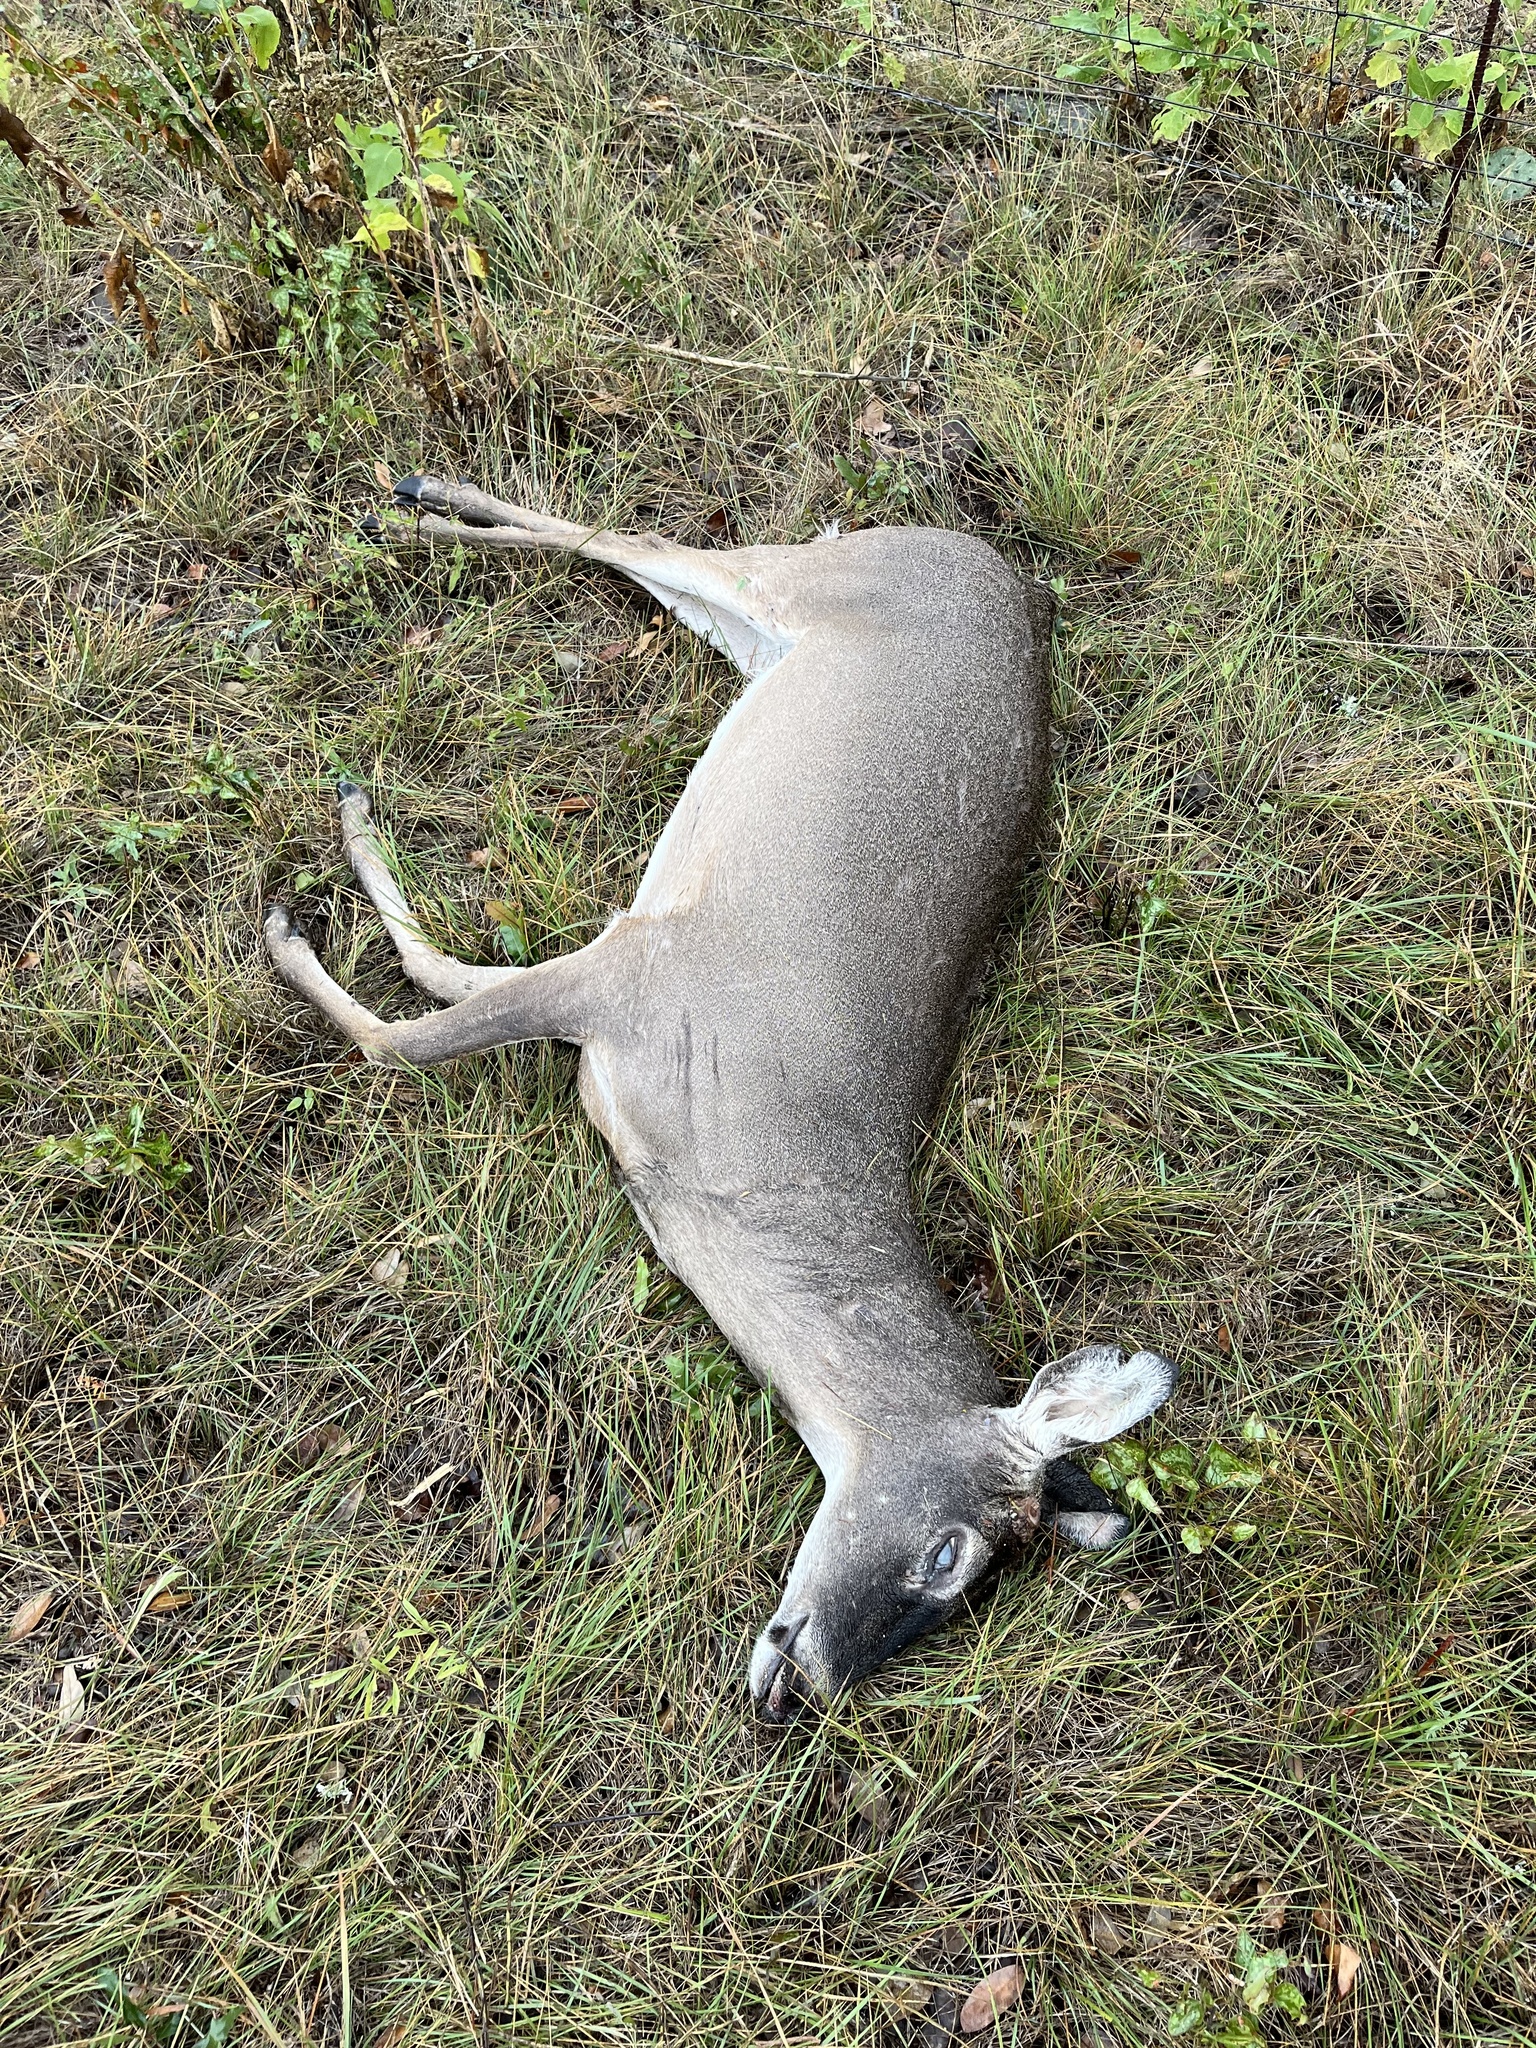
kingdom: Animalia
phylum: Chordata
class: Mammalia
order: Artiodactyla
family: Cervidae
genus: Odocoileus
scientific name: Odocoileus virginianus
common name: White-tailed deer
